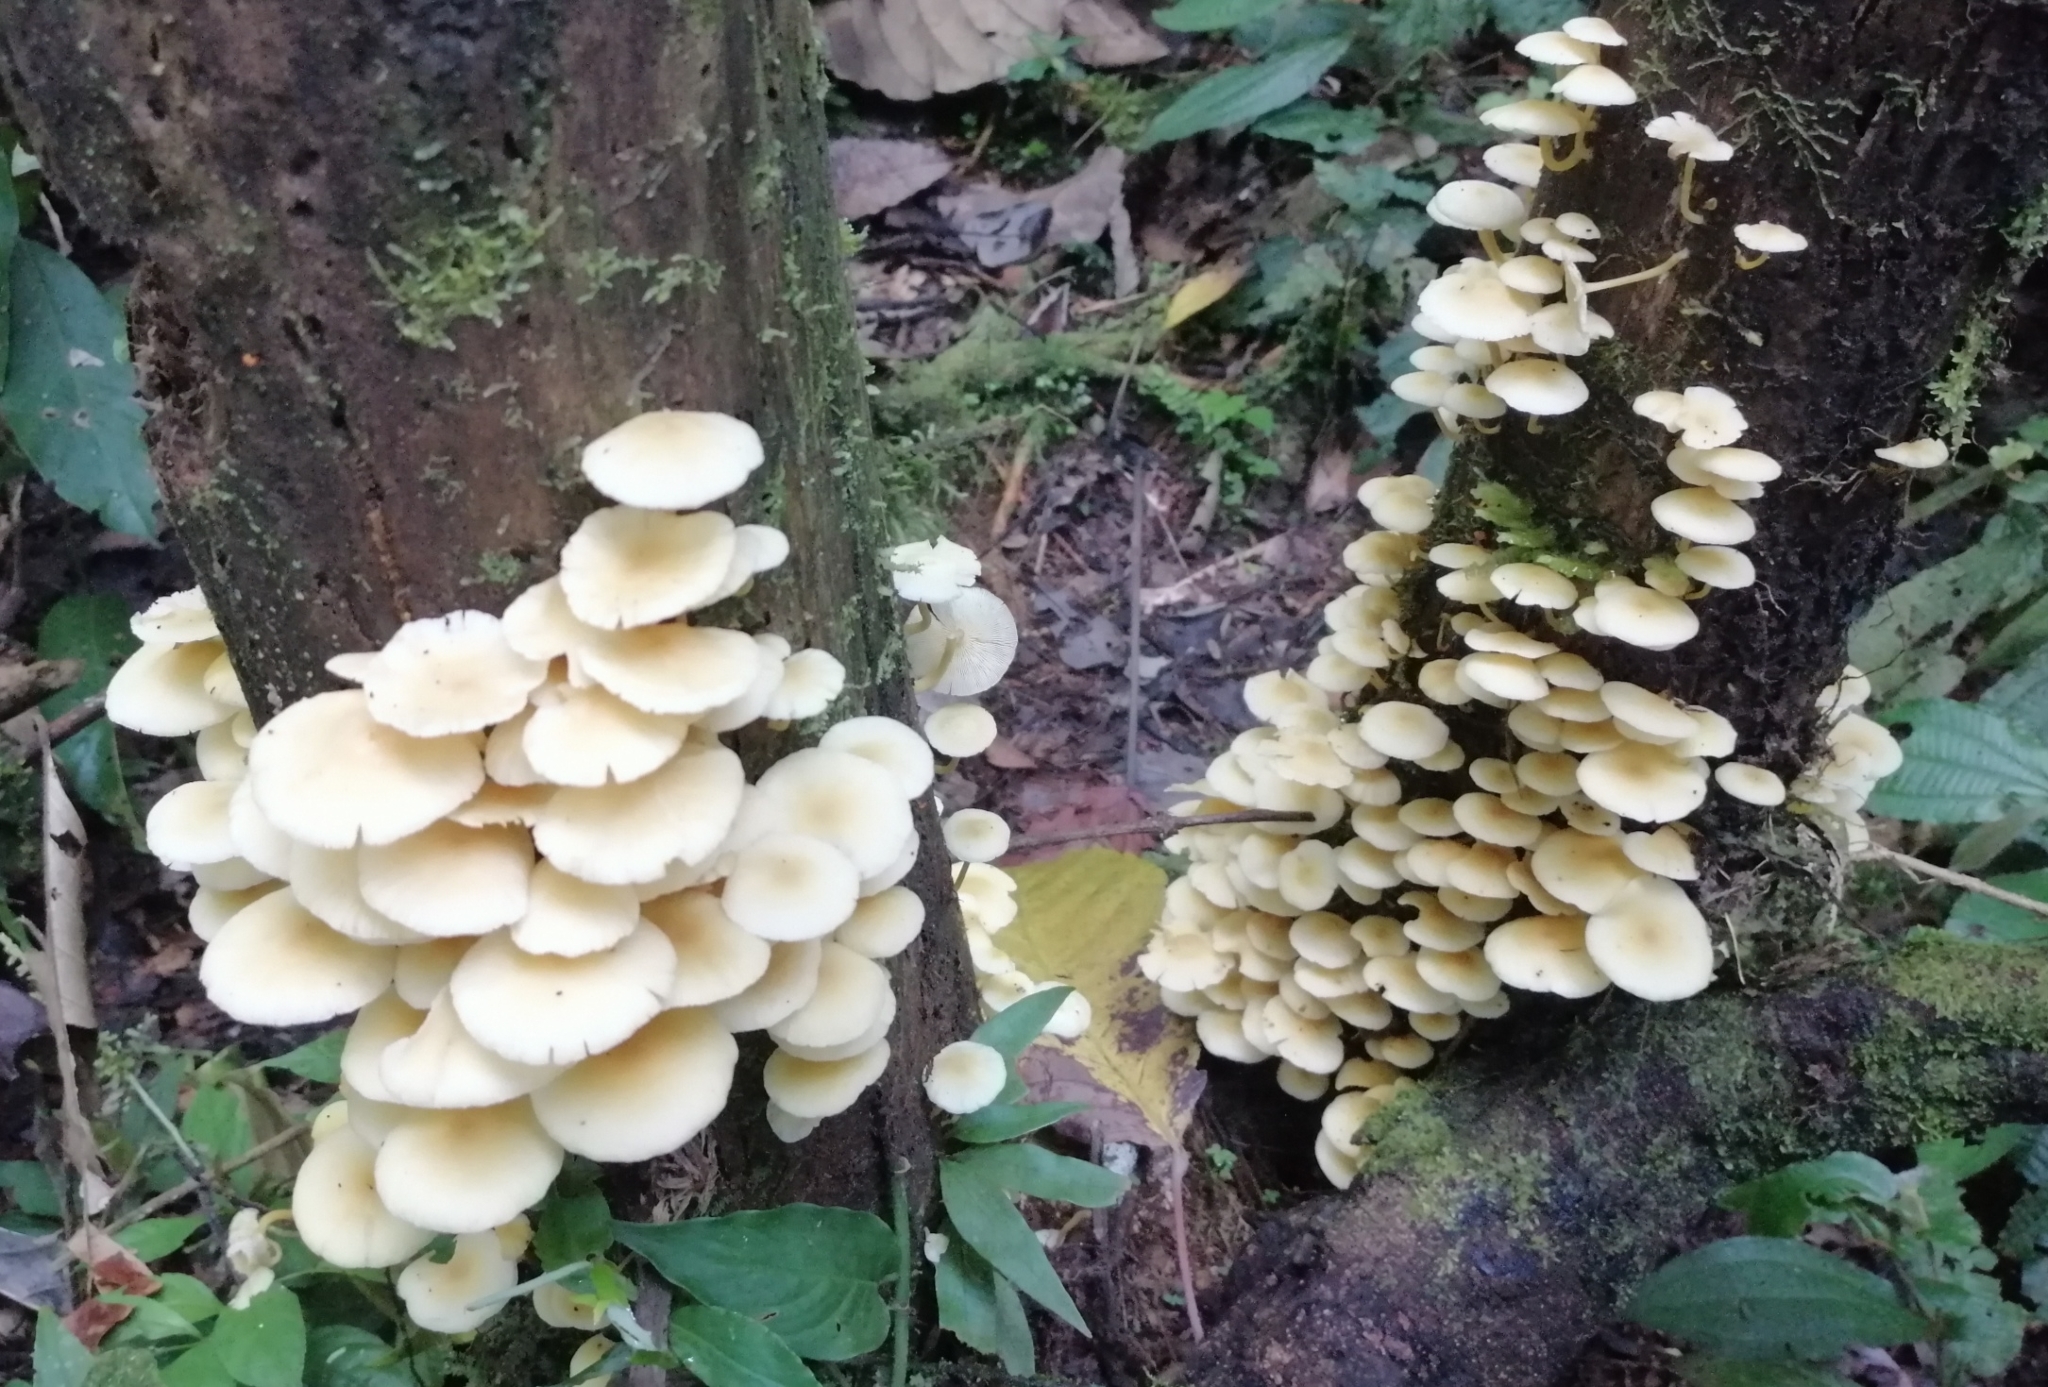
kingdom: Fungi
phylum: Basidiomycota
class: Agaricomycetes
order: Agaricales
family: Tricholomataceae
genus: Tricholomopsis
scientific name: Tricholomopsis aurea
